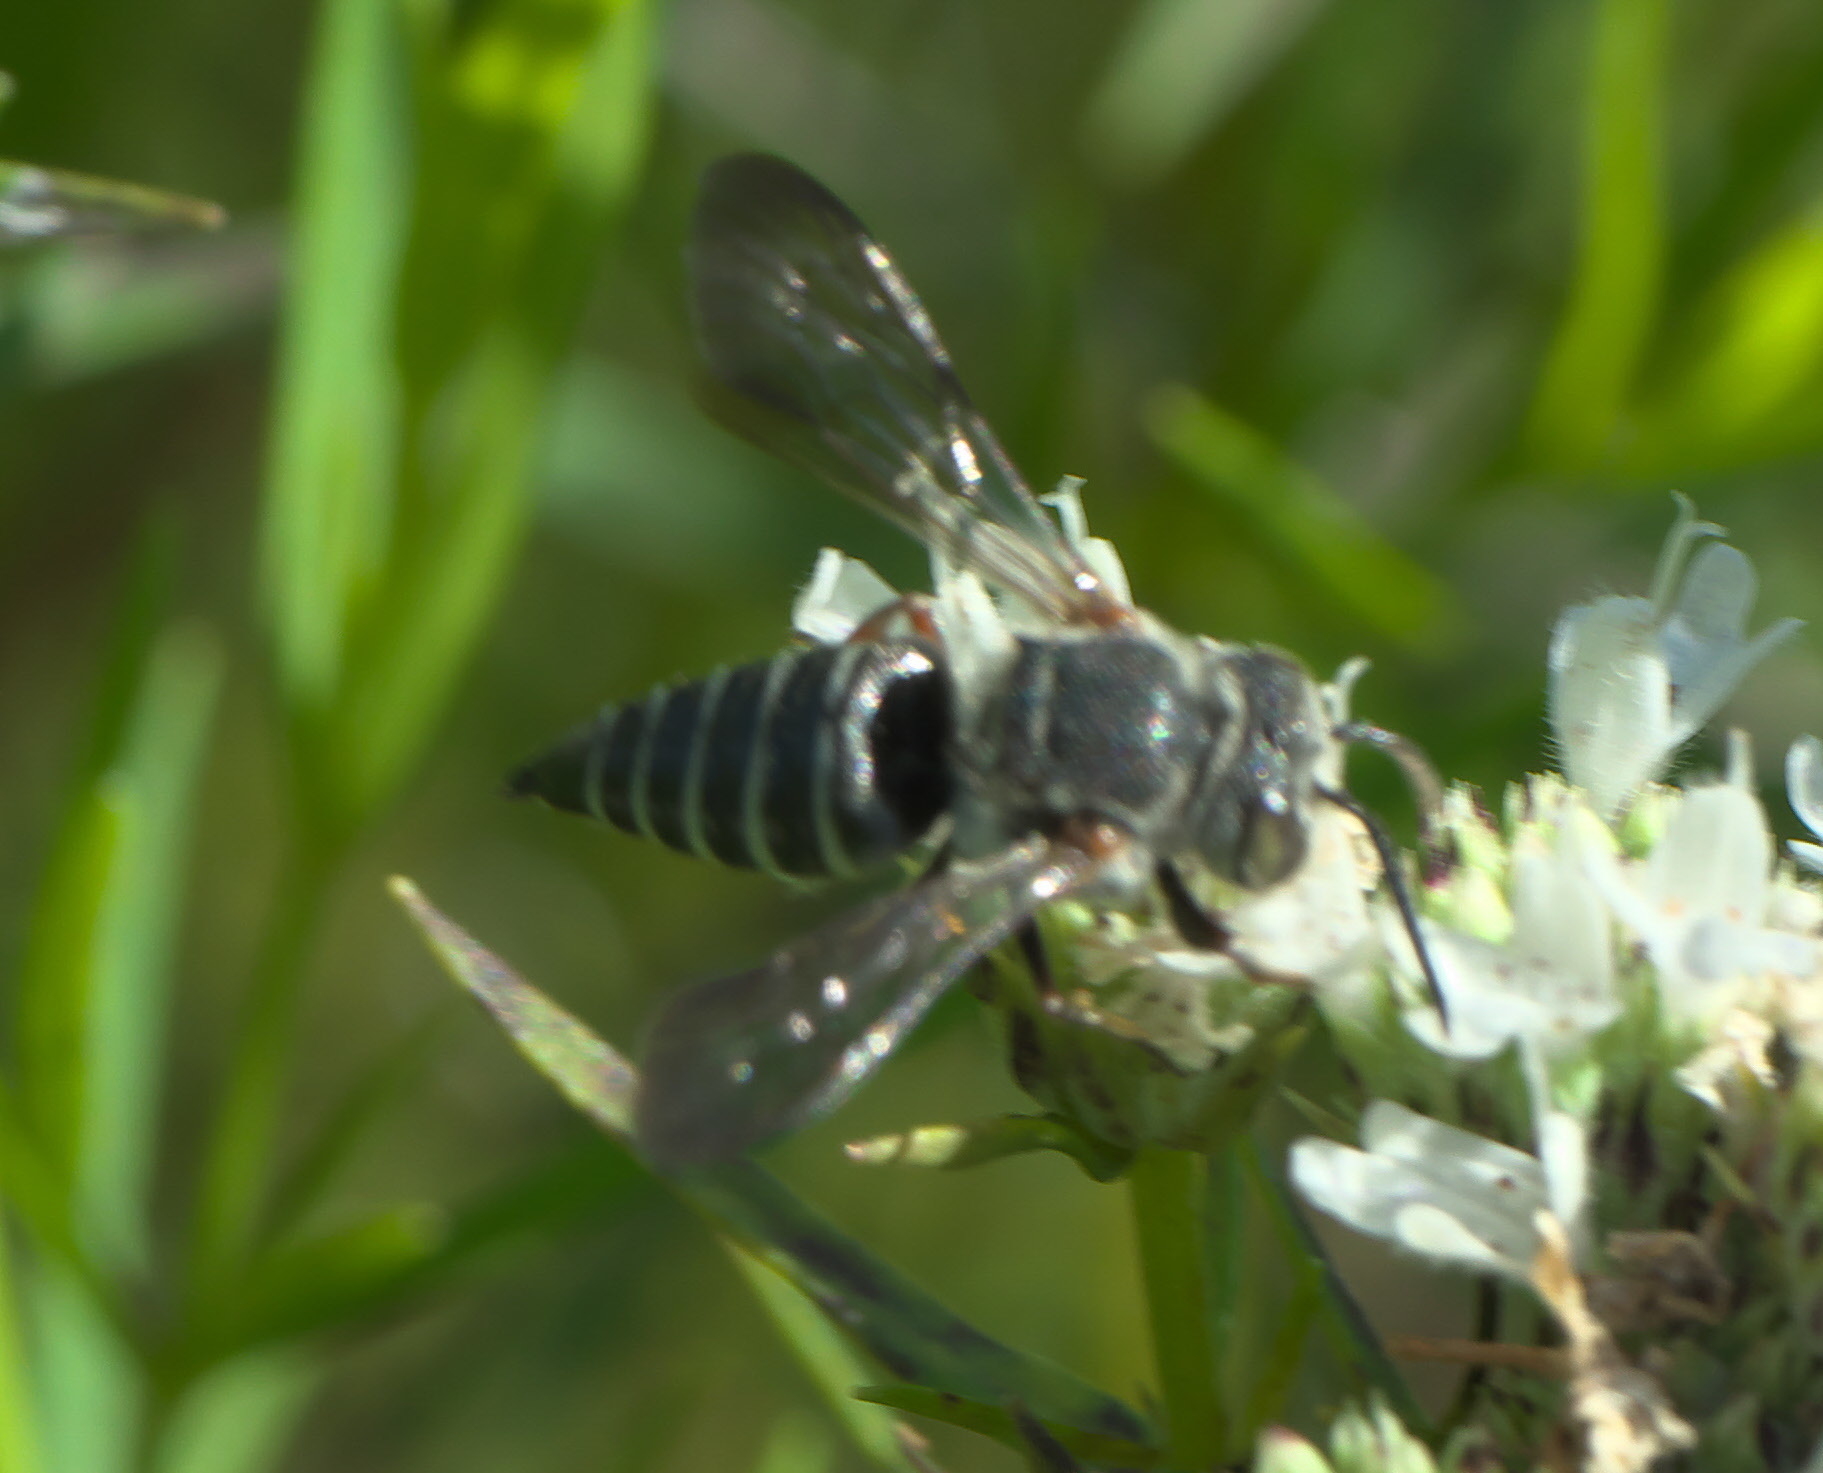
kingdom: Animalia
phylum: Arthropoda
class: Insecta
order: Hymenoptera
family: Megachilidae
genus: Coelioxys
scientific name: Coelioxys octodentatus
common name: Eight-toothed cuckoo leaf-cutter bee
